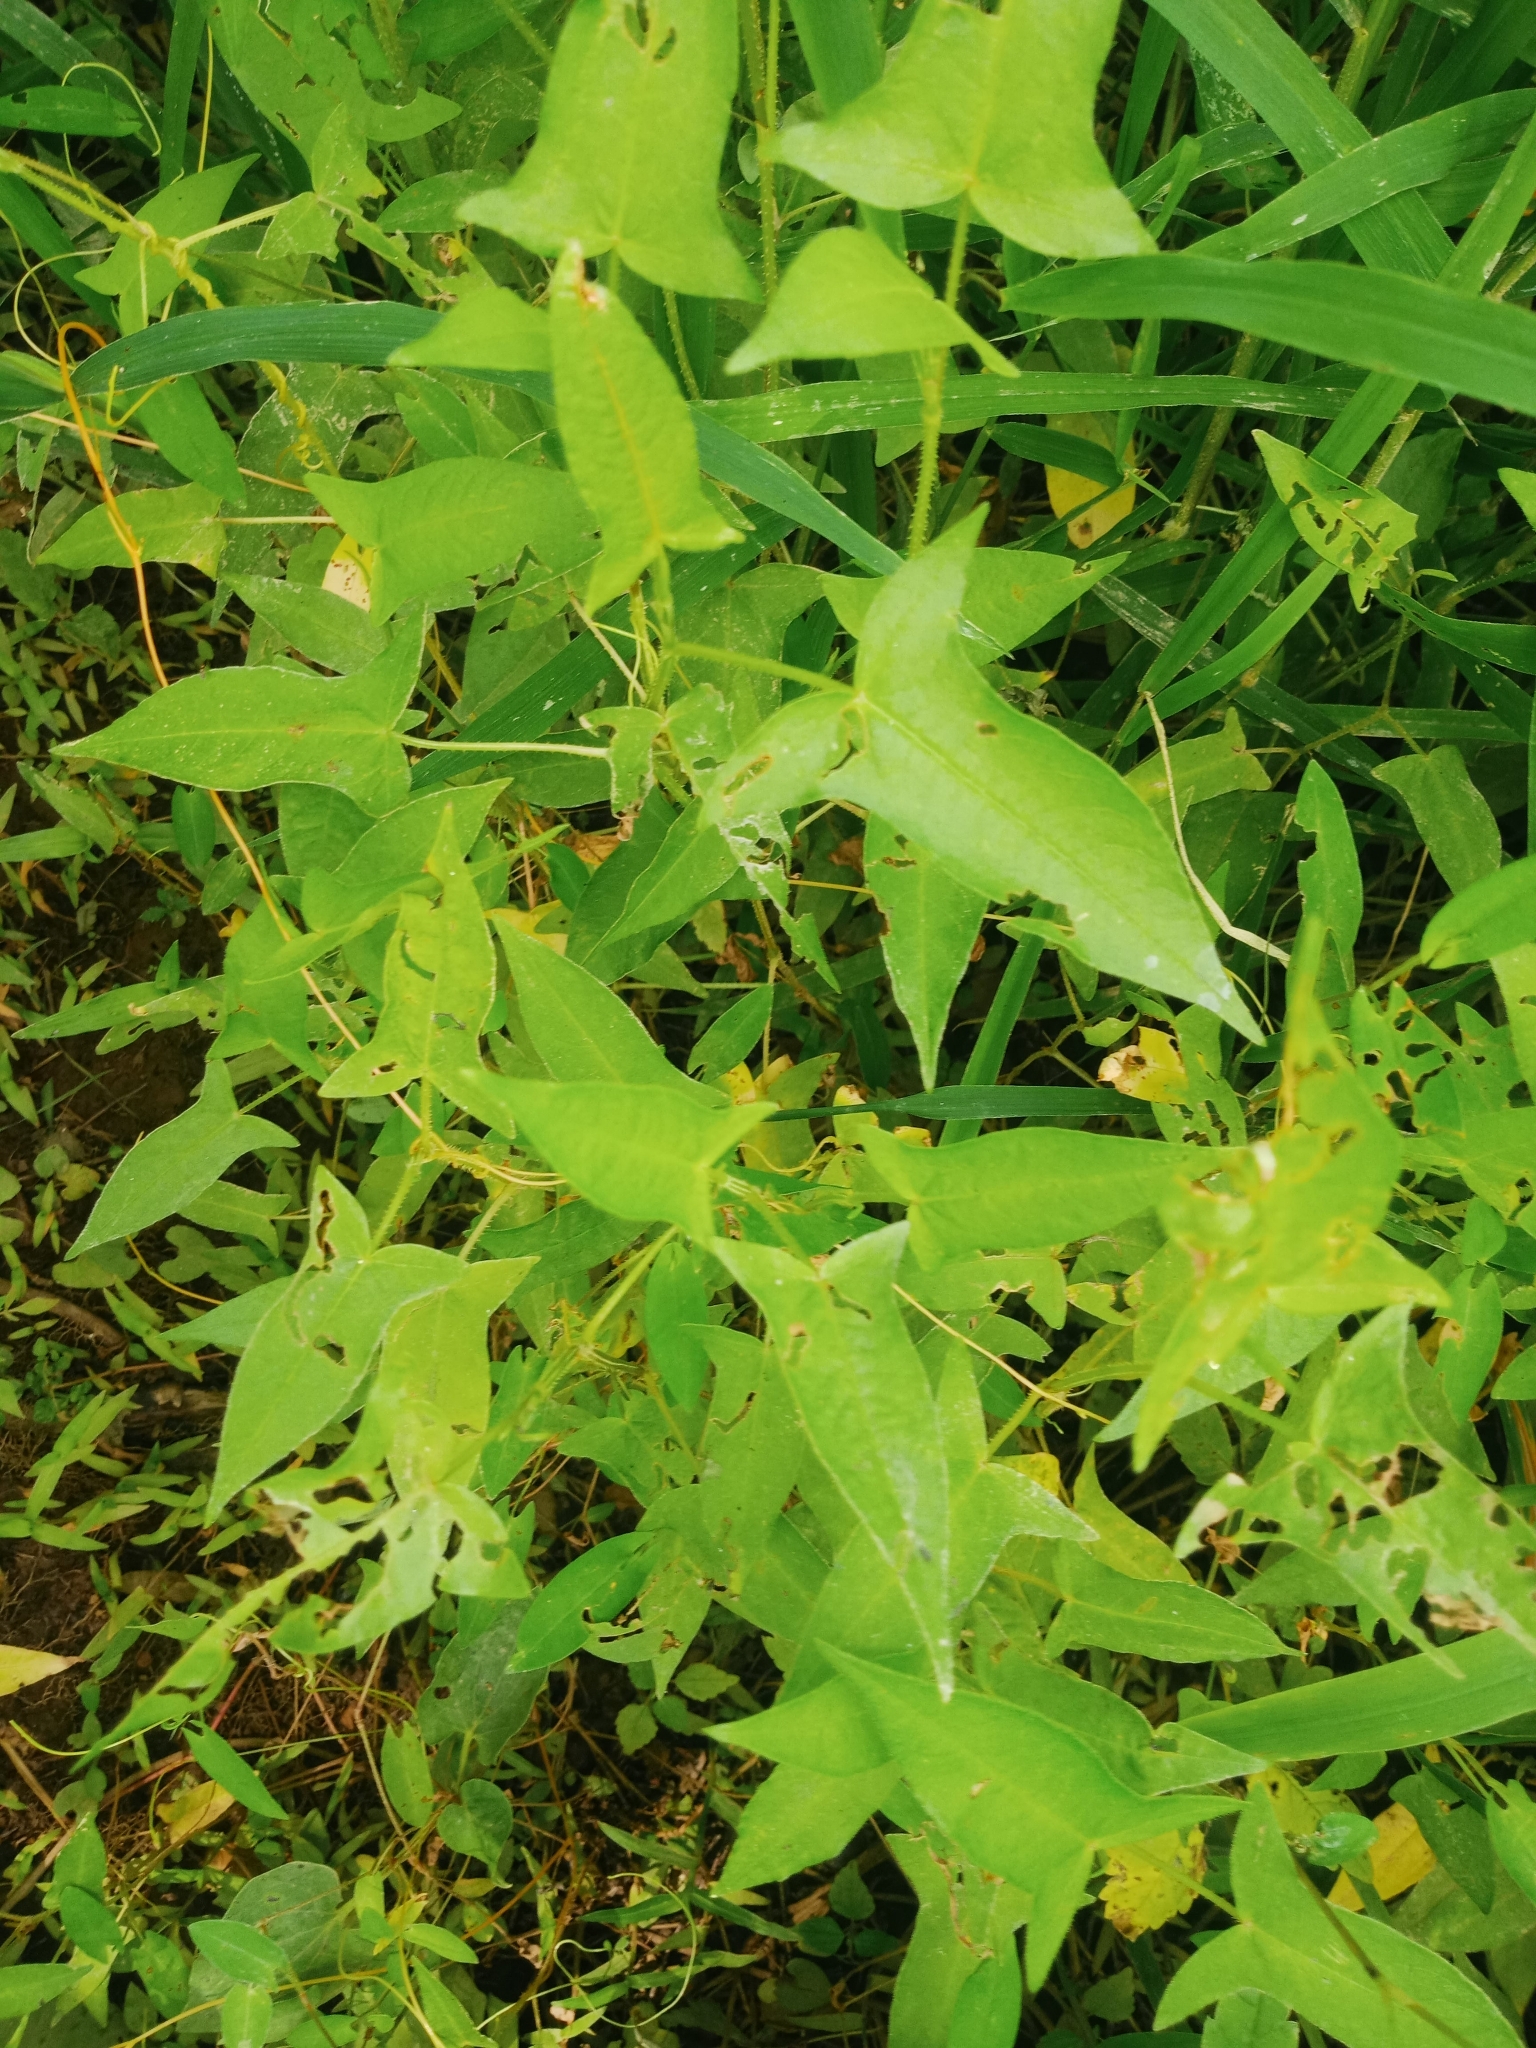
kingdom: Plantae
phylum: Tracheophyta
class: Magnoliopsida
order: Caryophyllales
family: Polygonaceae
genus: Persicaria
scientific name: Persicaria arifolia
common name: Halberd-leaved tear-thumb
